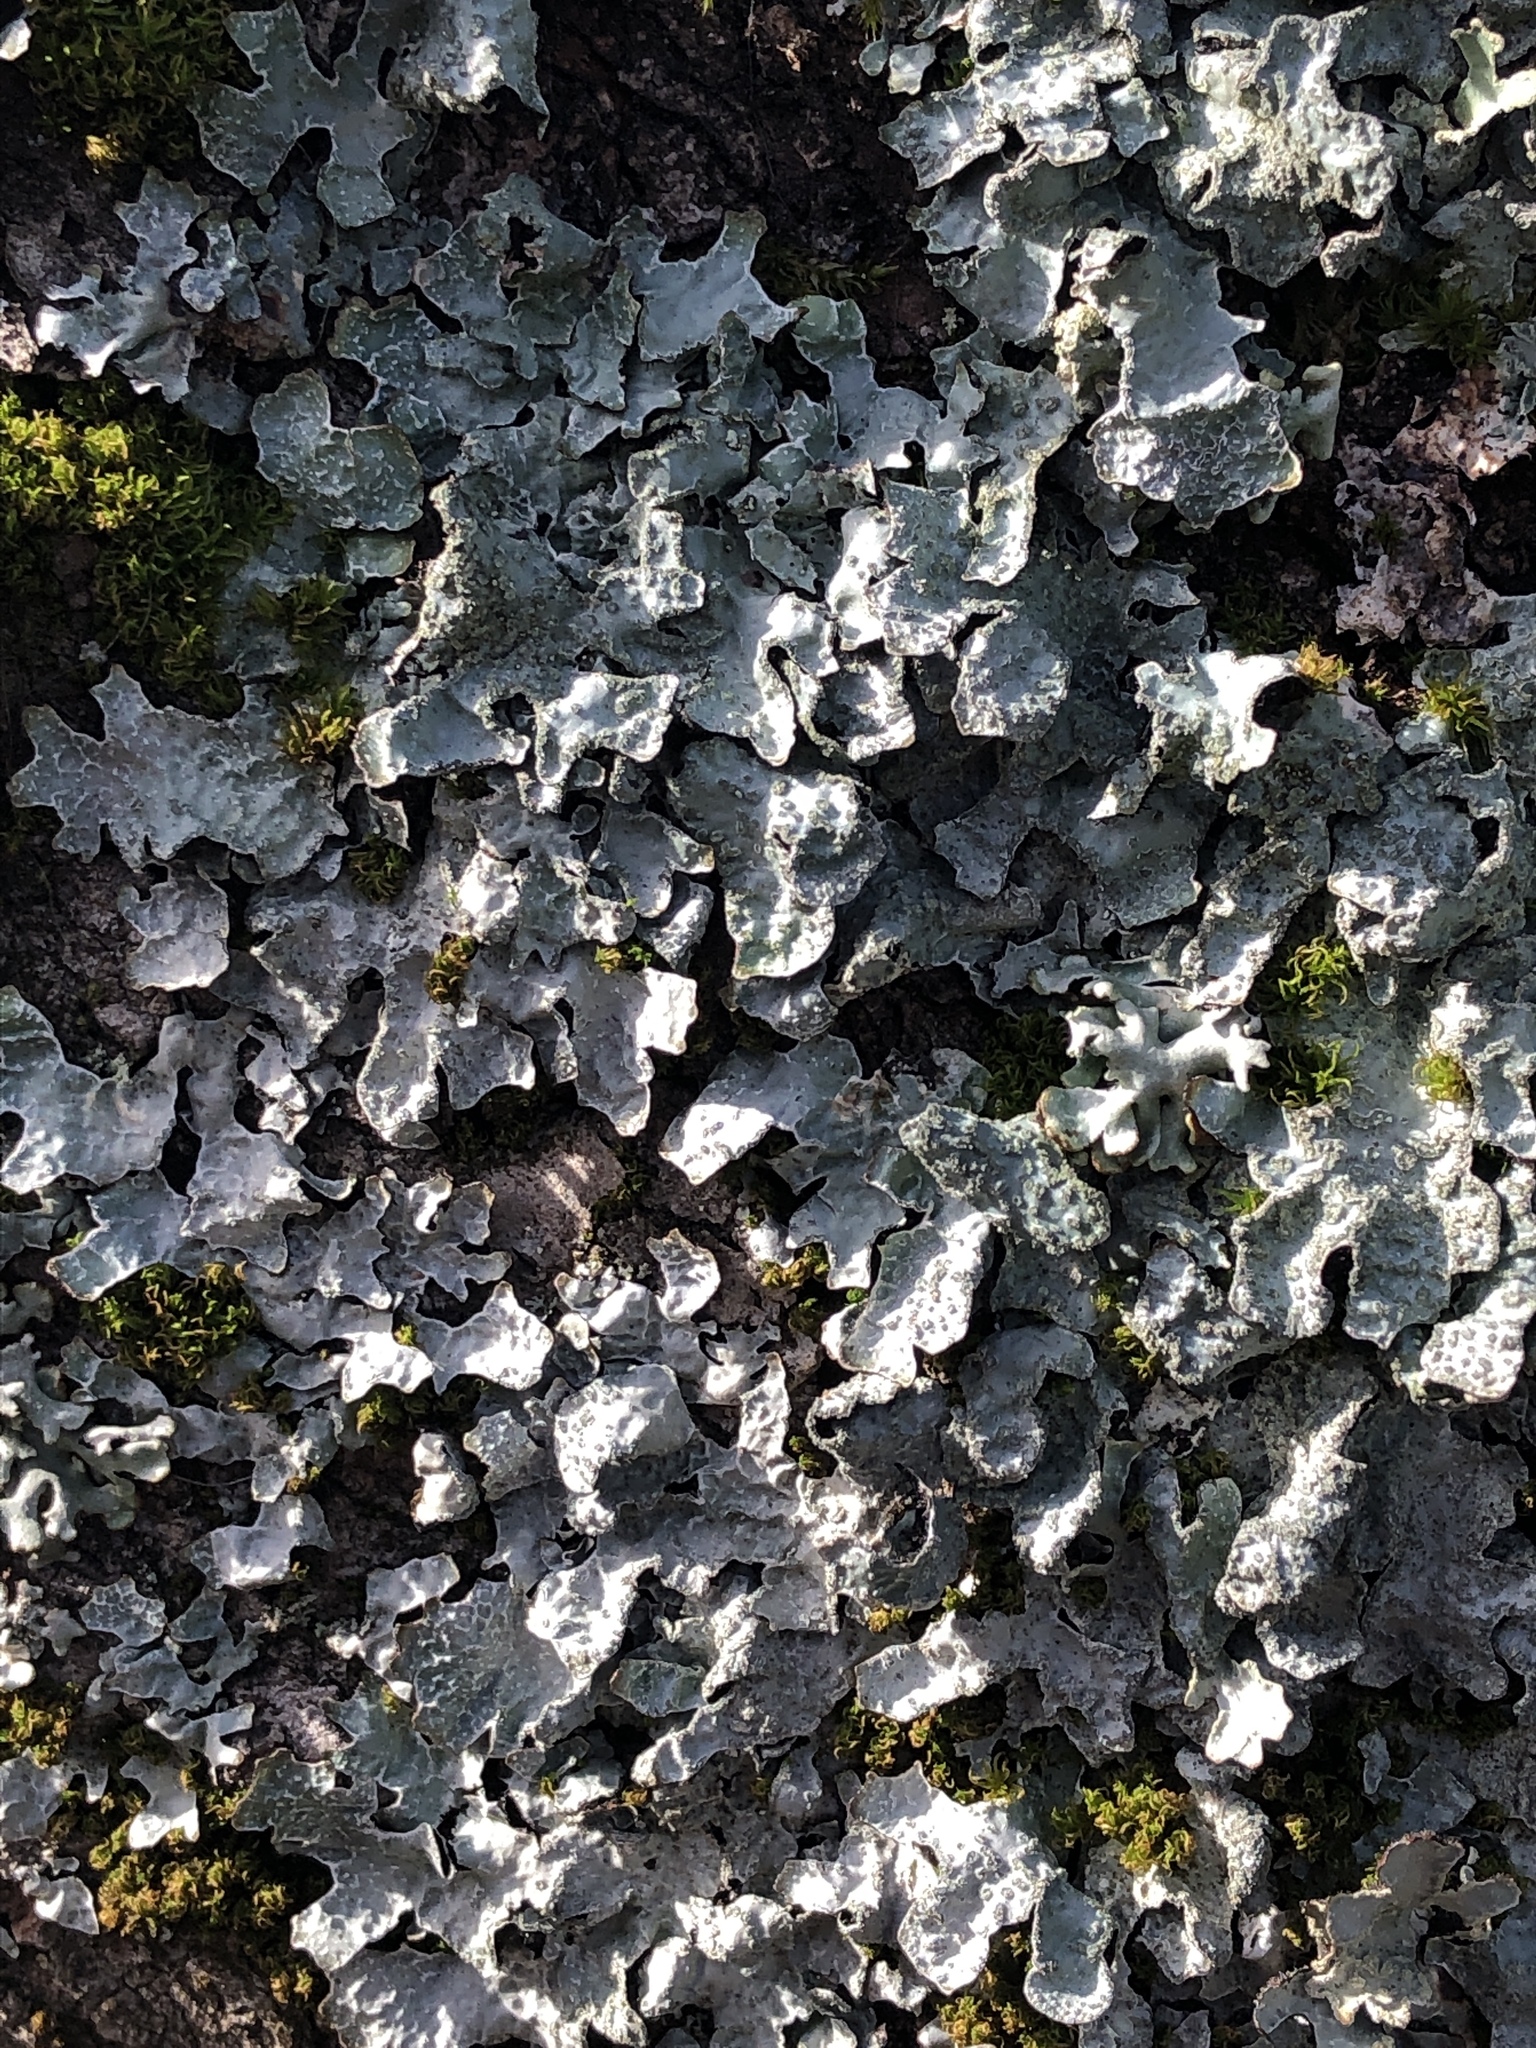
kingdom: Fungi
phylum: Ascomycota
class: Lecanoromycetes
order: Lecanorales
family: Parmeliaceae
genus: Parmelia
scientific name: Parmelia sulcata
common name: Netted shield lichen
